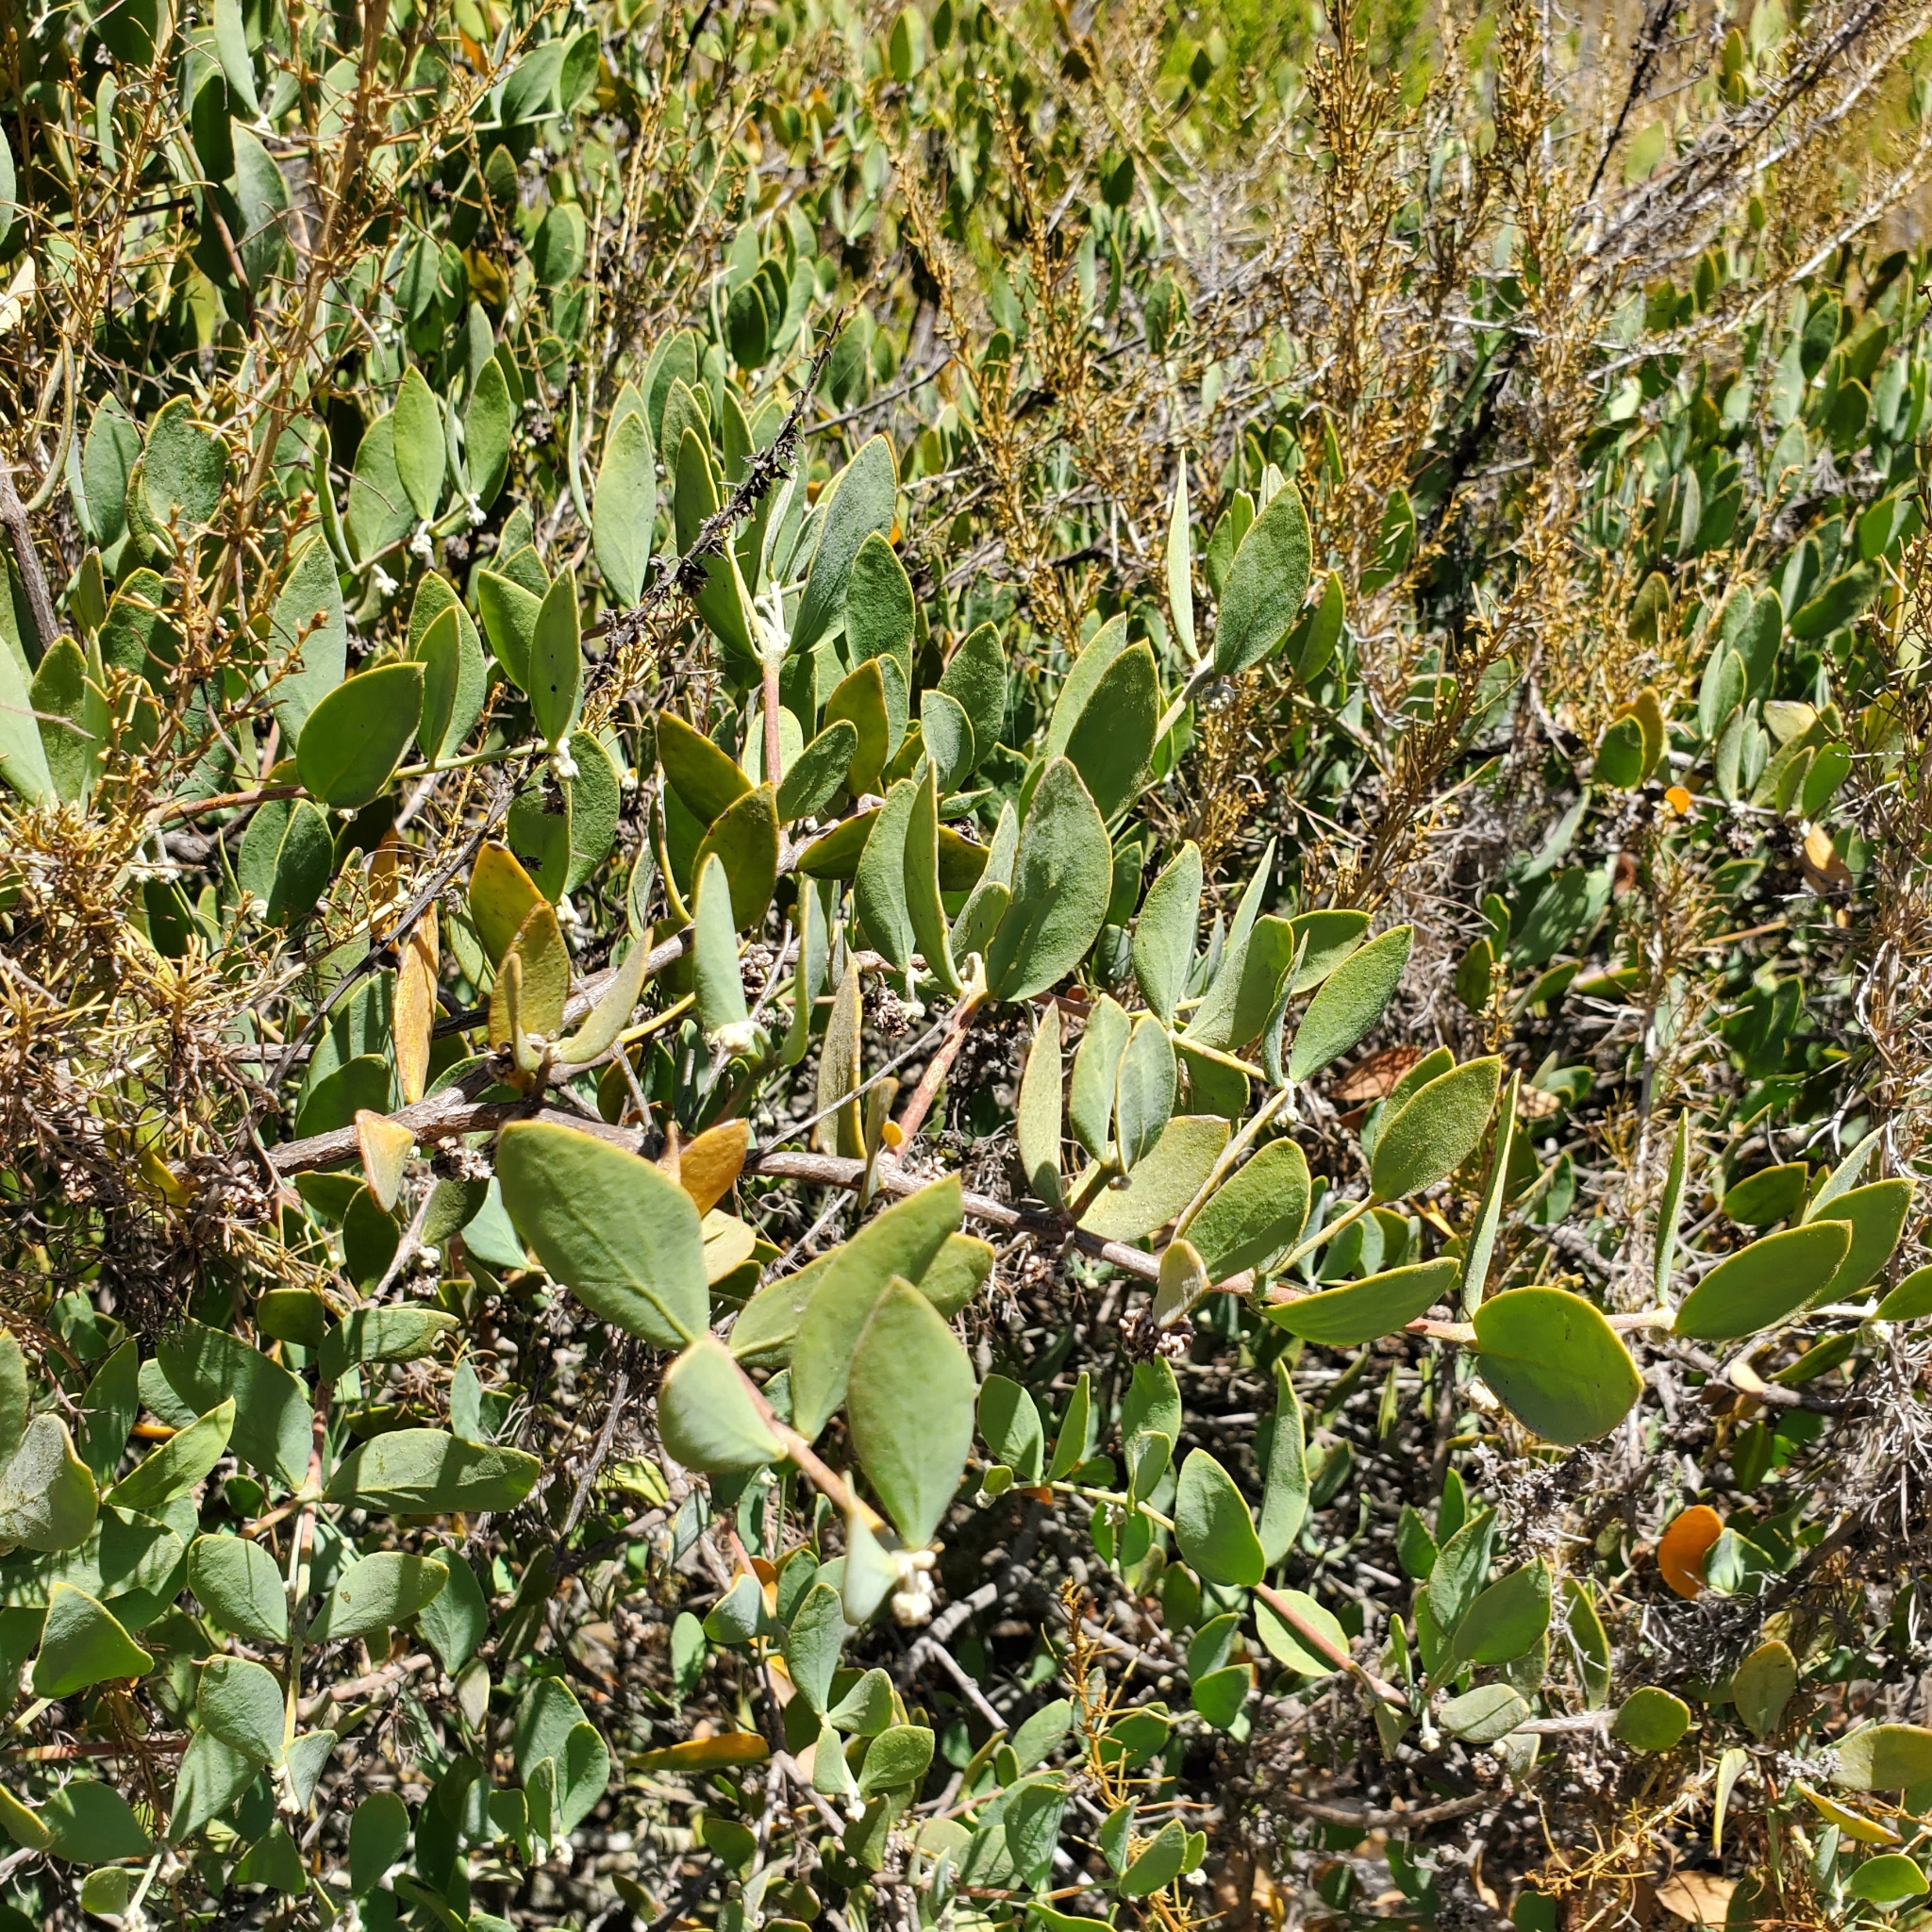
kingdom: Plantae
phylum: Tracheophyta
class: Magnoliopsida
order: Caryophyllales
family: Simmondsiaceae
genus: Simmondsia
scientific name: Simmondsia chinensis
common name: Jojoba
